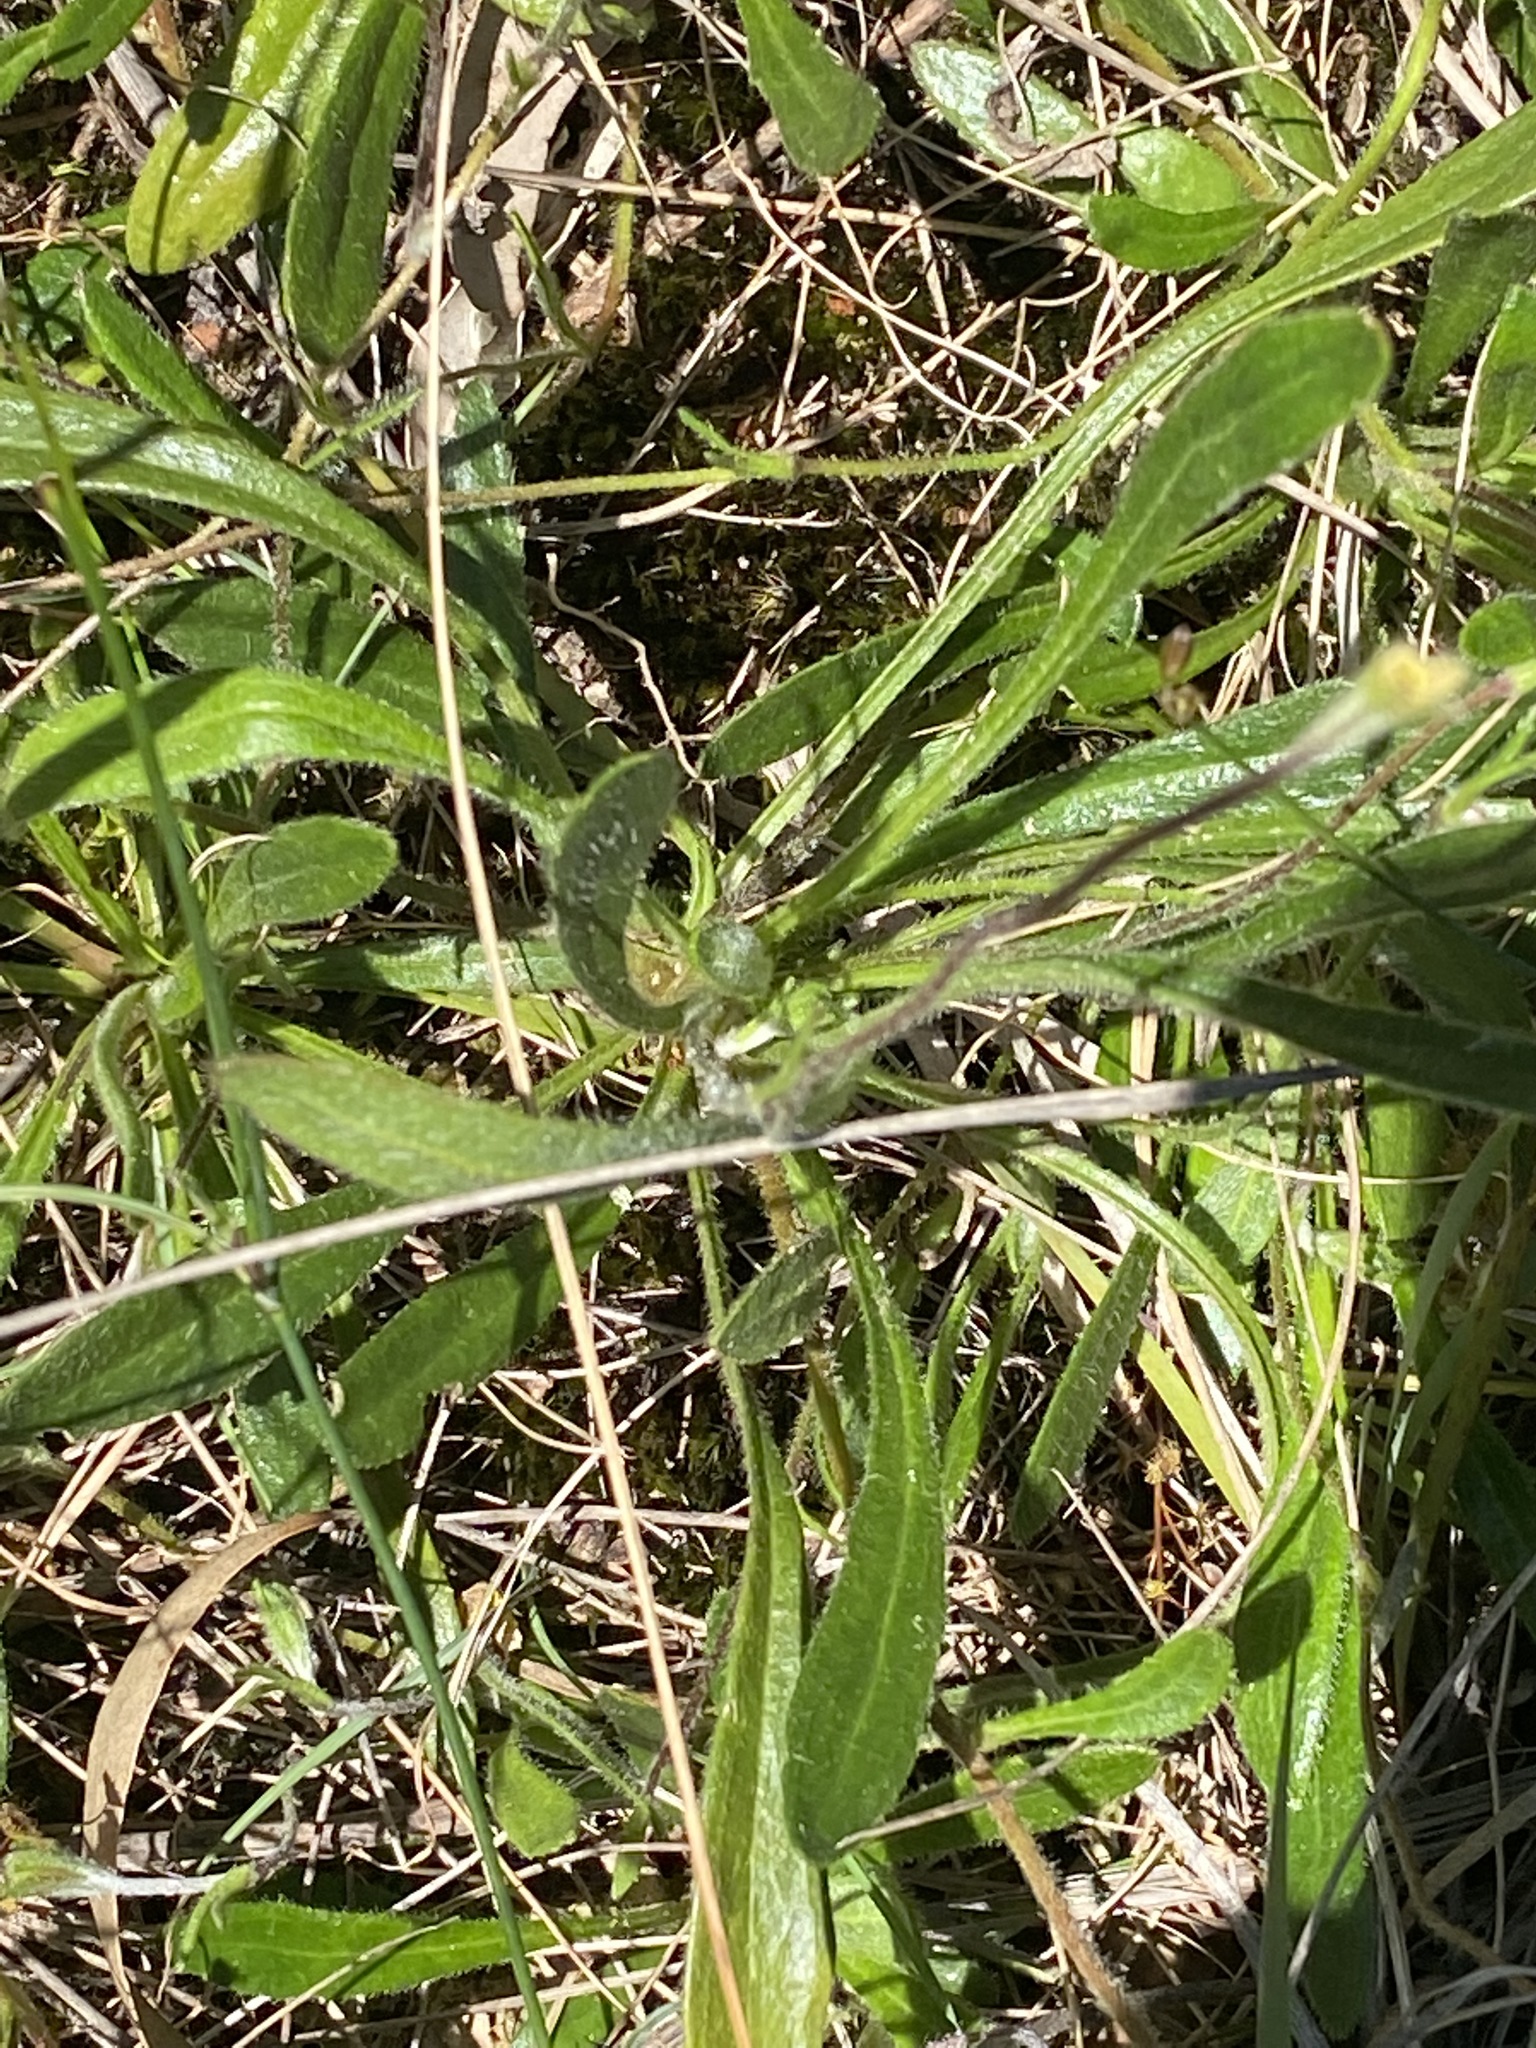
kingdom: Plantae
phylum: Tracheophyta
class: Magnoliopsida
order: Asterales
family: Goodeniaceae
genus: Goodenia
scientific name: Goodenia geniculata
